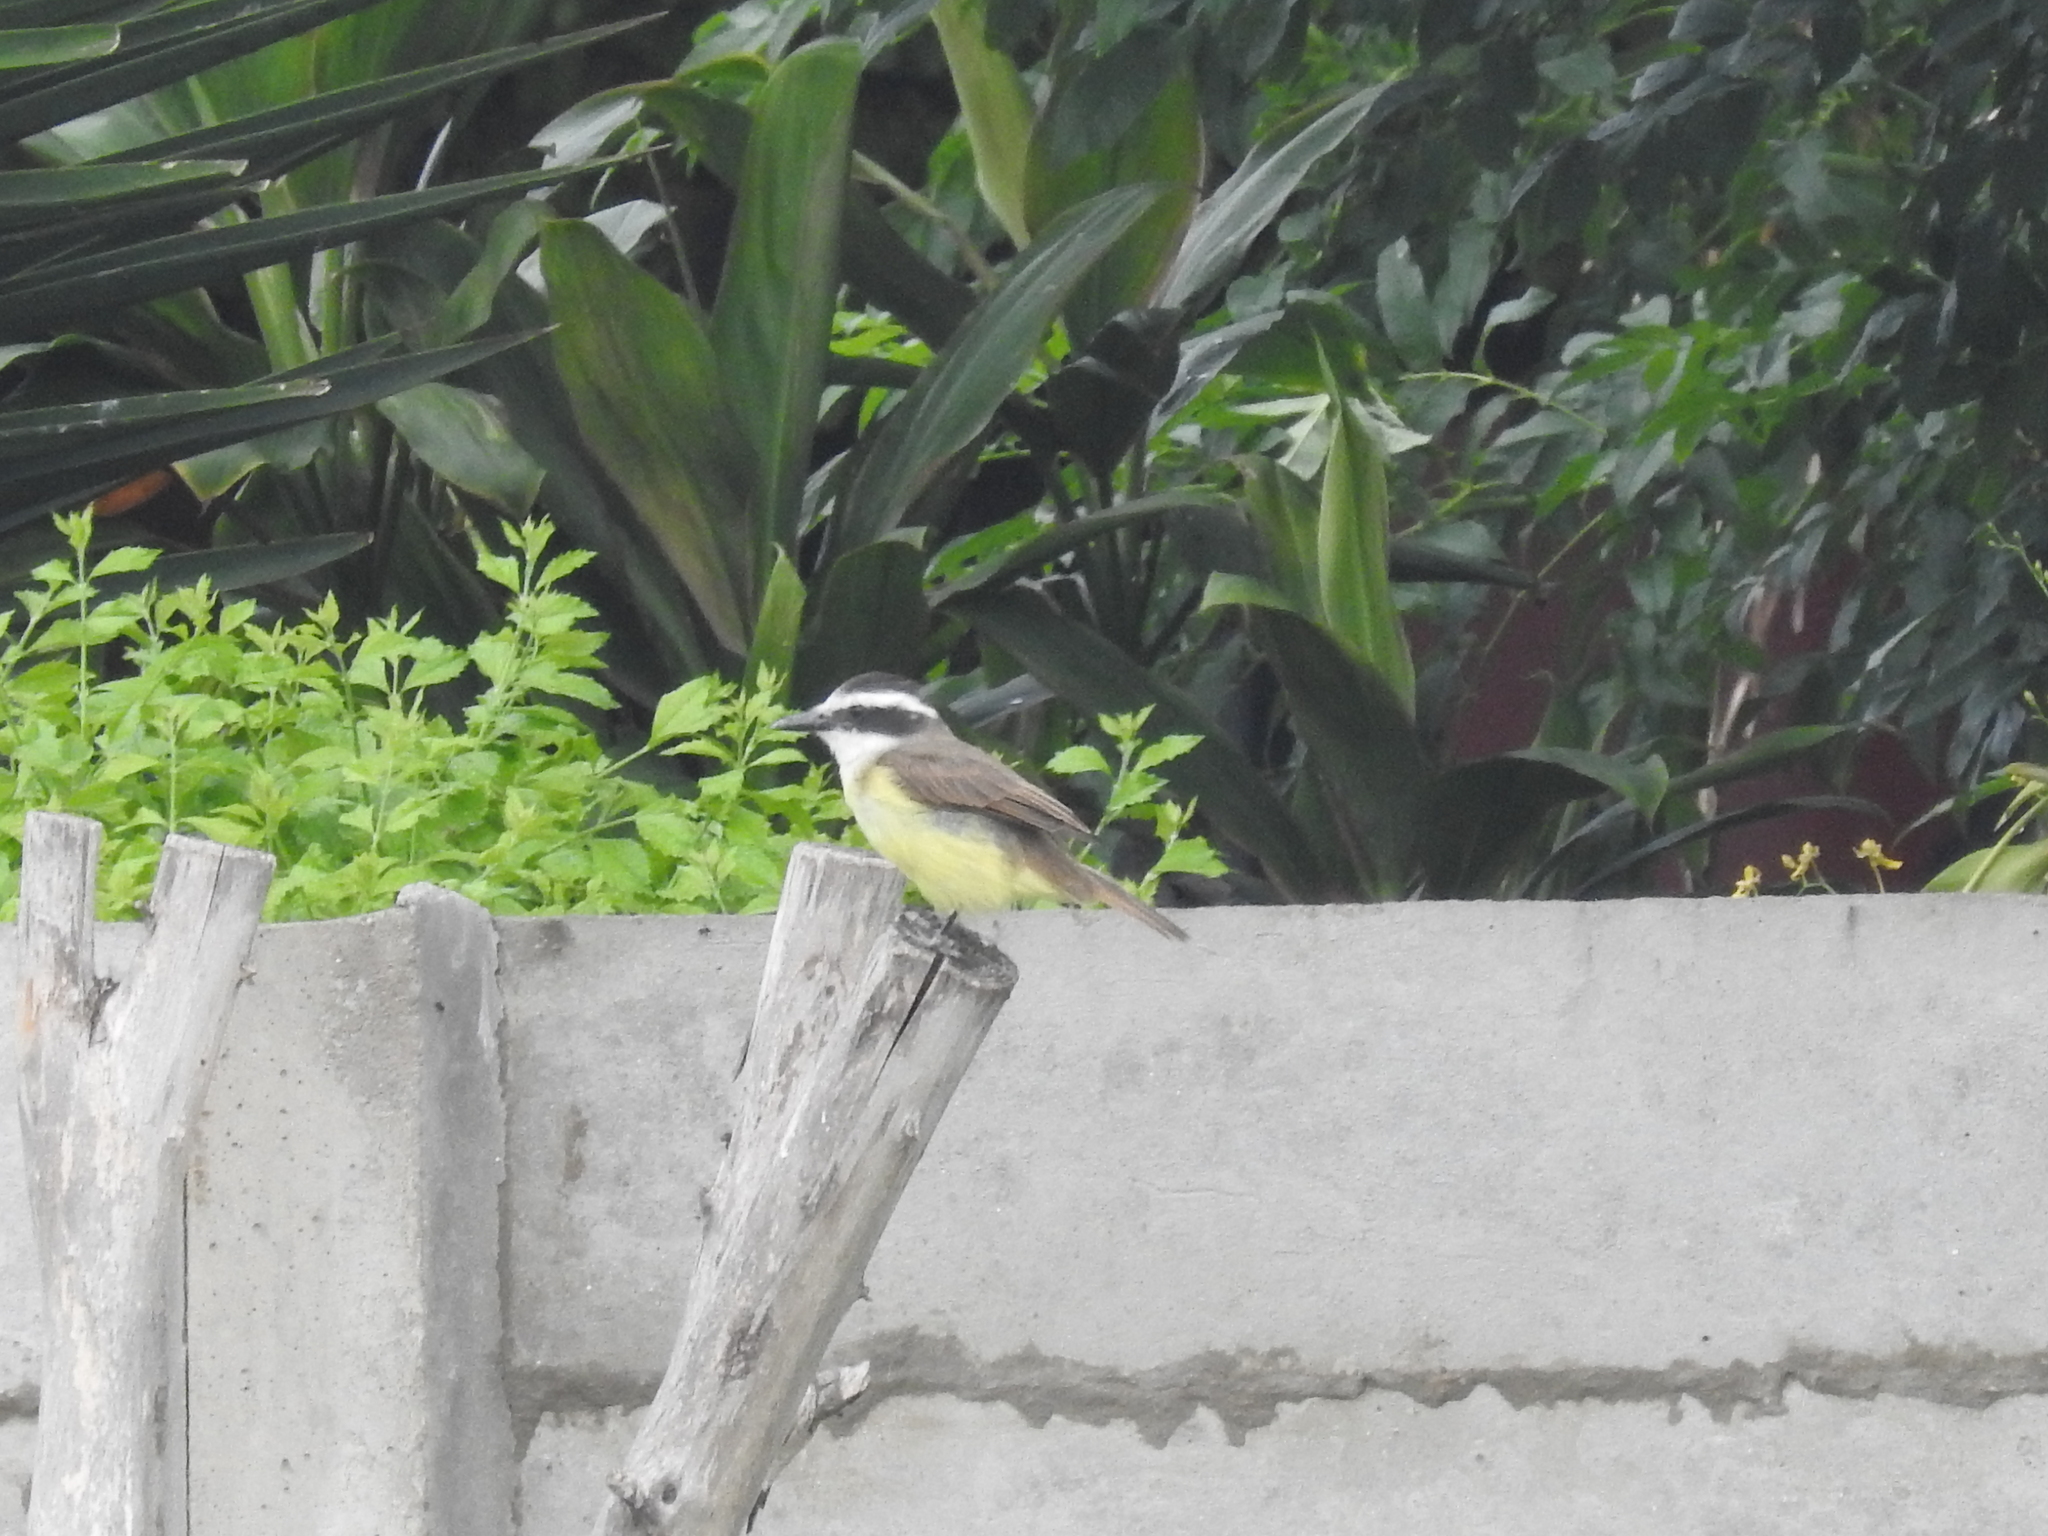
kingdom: Animalia
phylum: Chordata
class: Aves
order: Passeriformes
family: Tyrannidae
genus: Pitangus
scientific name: Pitangus sulphuratus
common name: Great kiskadee
